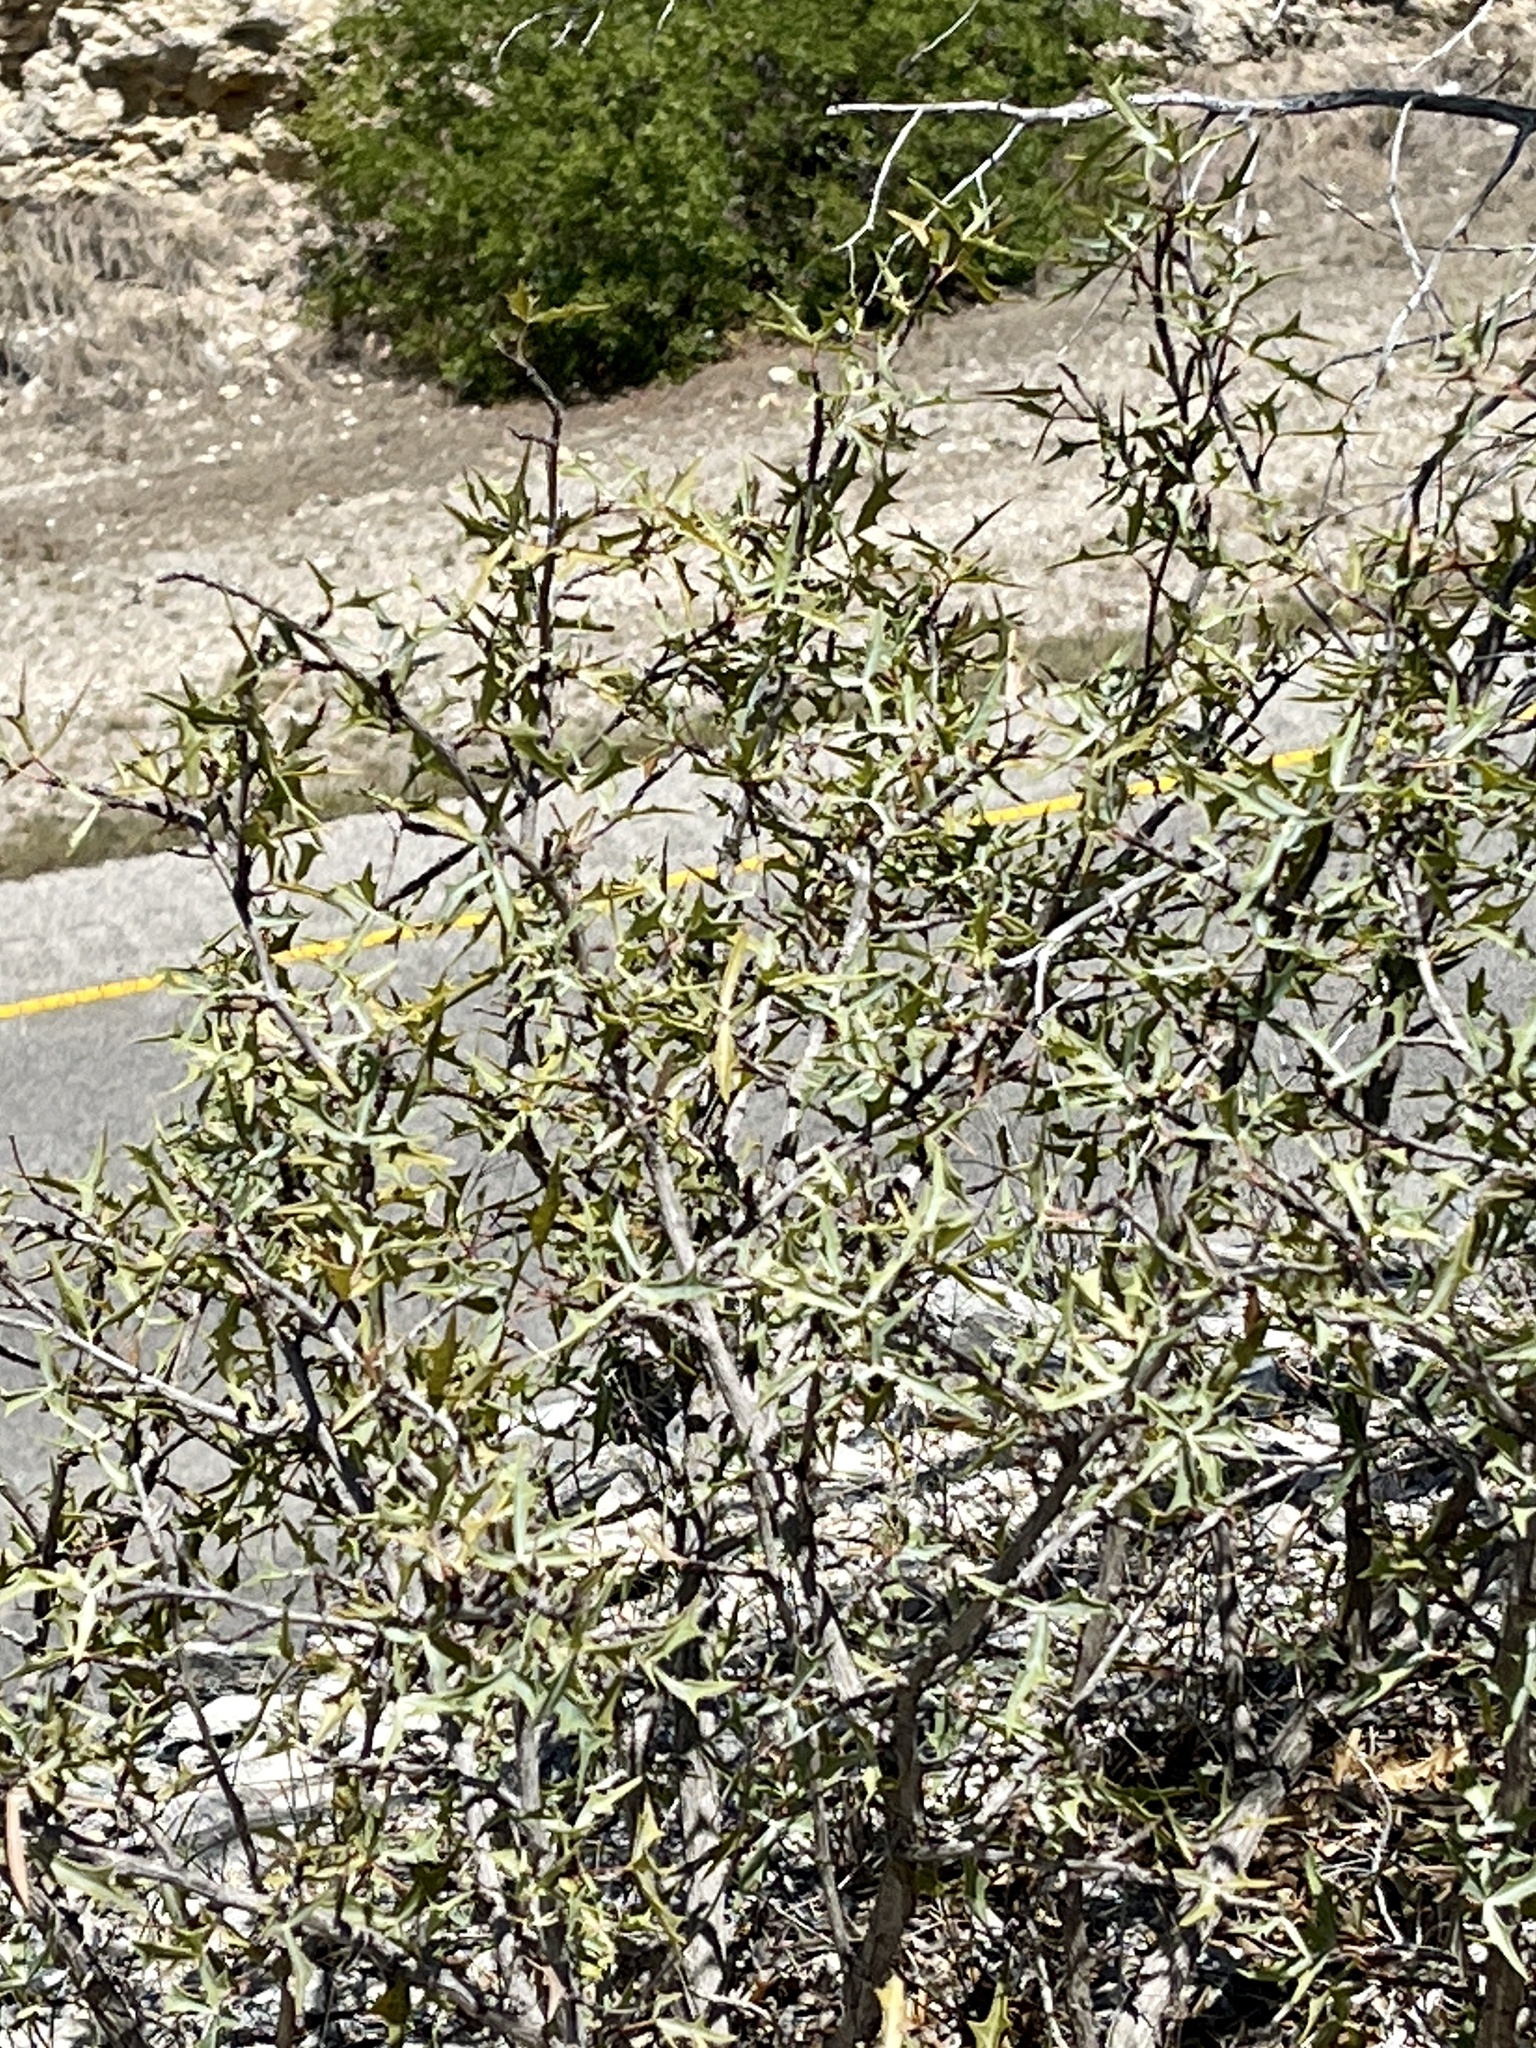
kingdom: Plantae
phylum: Tracheophyta
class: Magnoliopsida
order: Ranunculales
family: Berberidaceae
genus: Alloberberis
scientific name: Alloberberis trifoliolata
